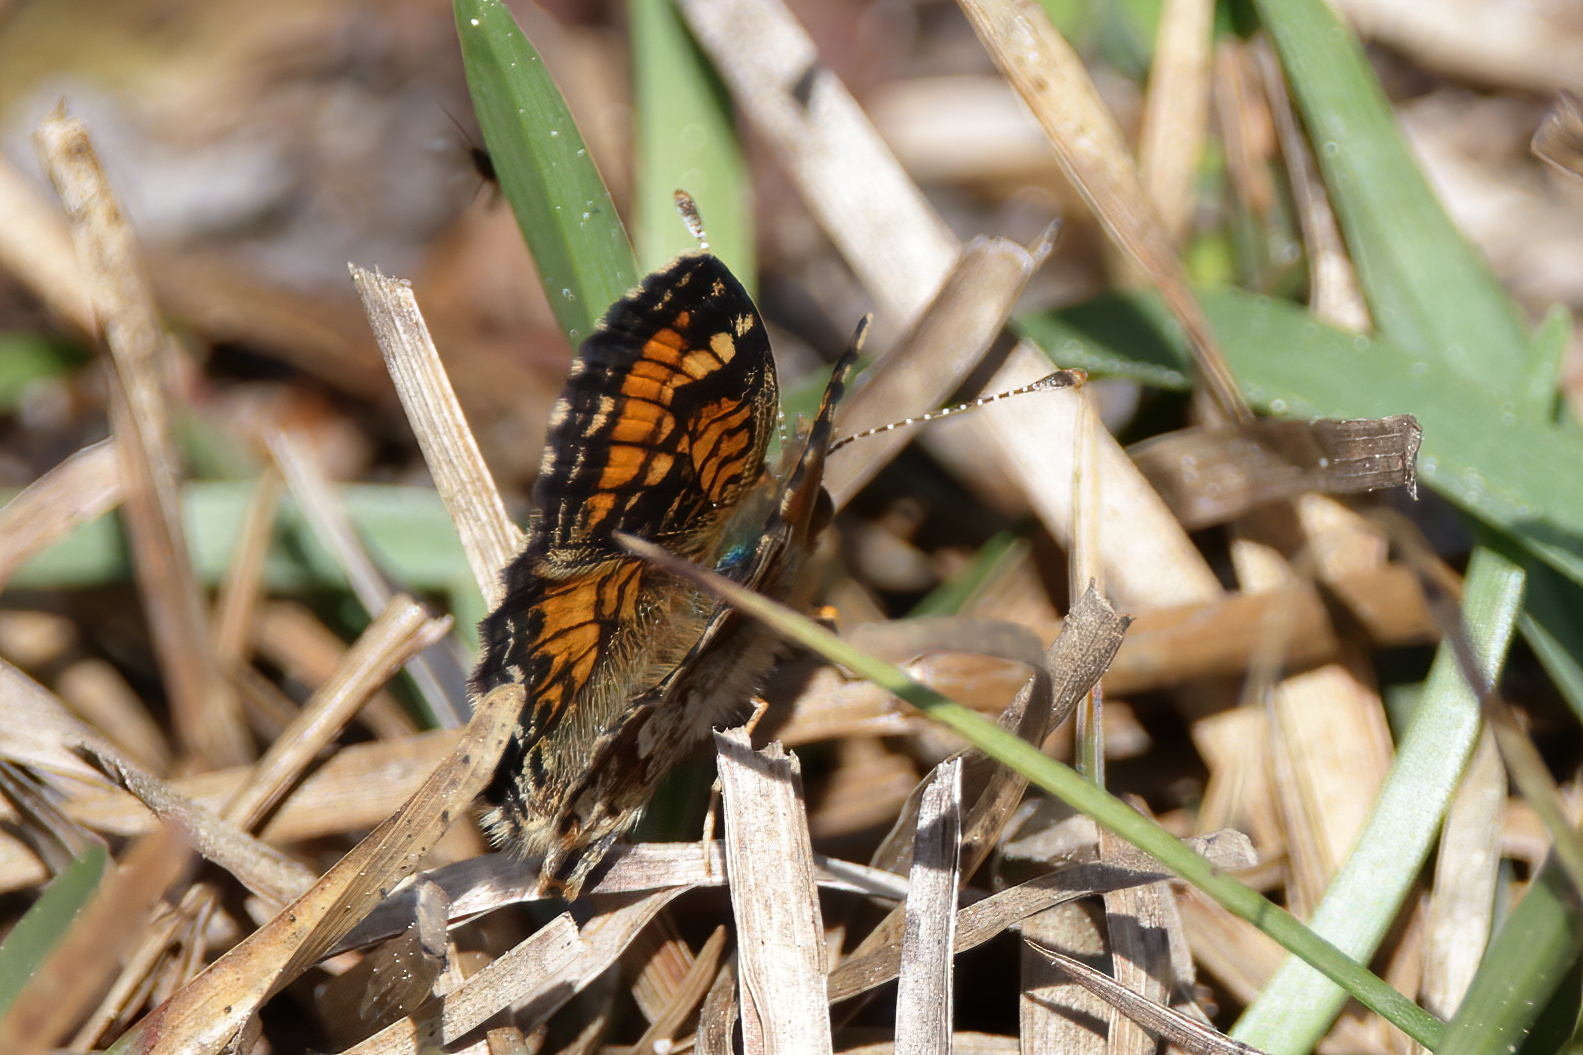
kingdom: Animalia
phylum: Arthropoda
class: Insecta
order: Lepidoptera
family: Nymphalidae
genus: Phyciodes
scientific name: Phyciodes phaon
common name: Phaon crescent
